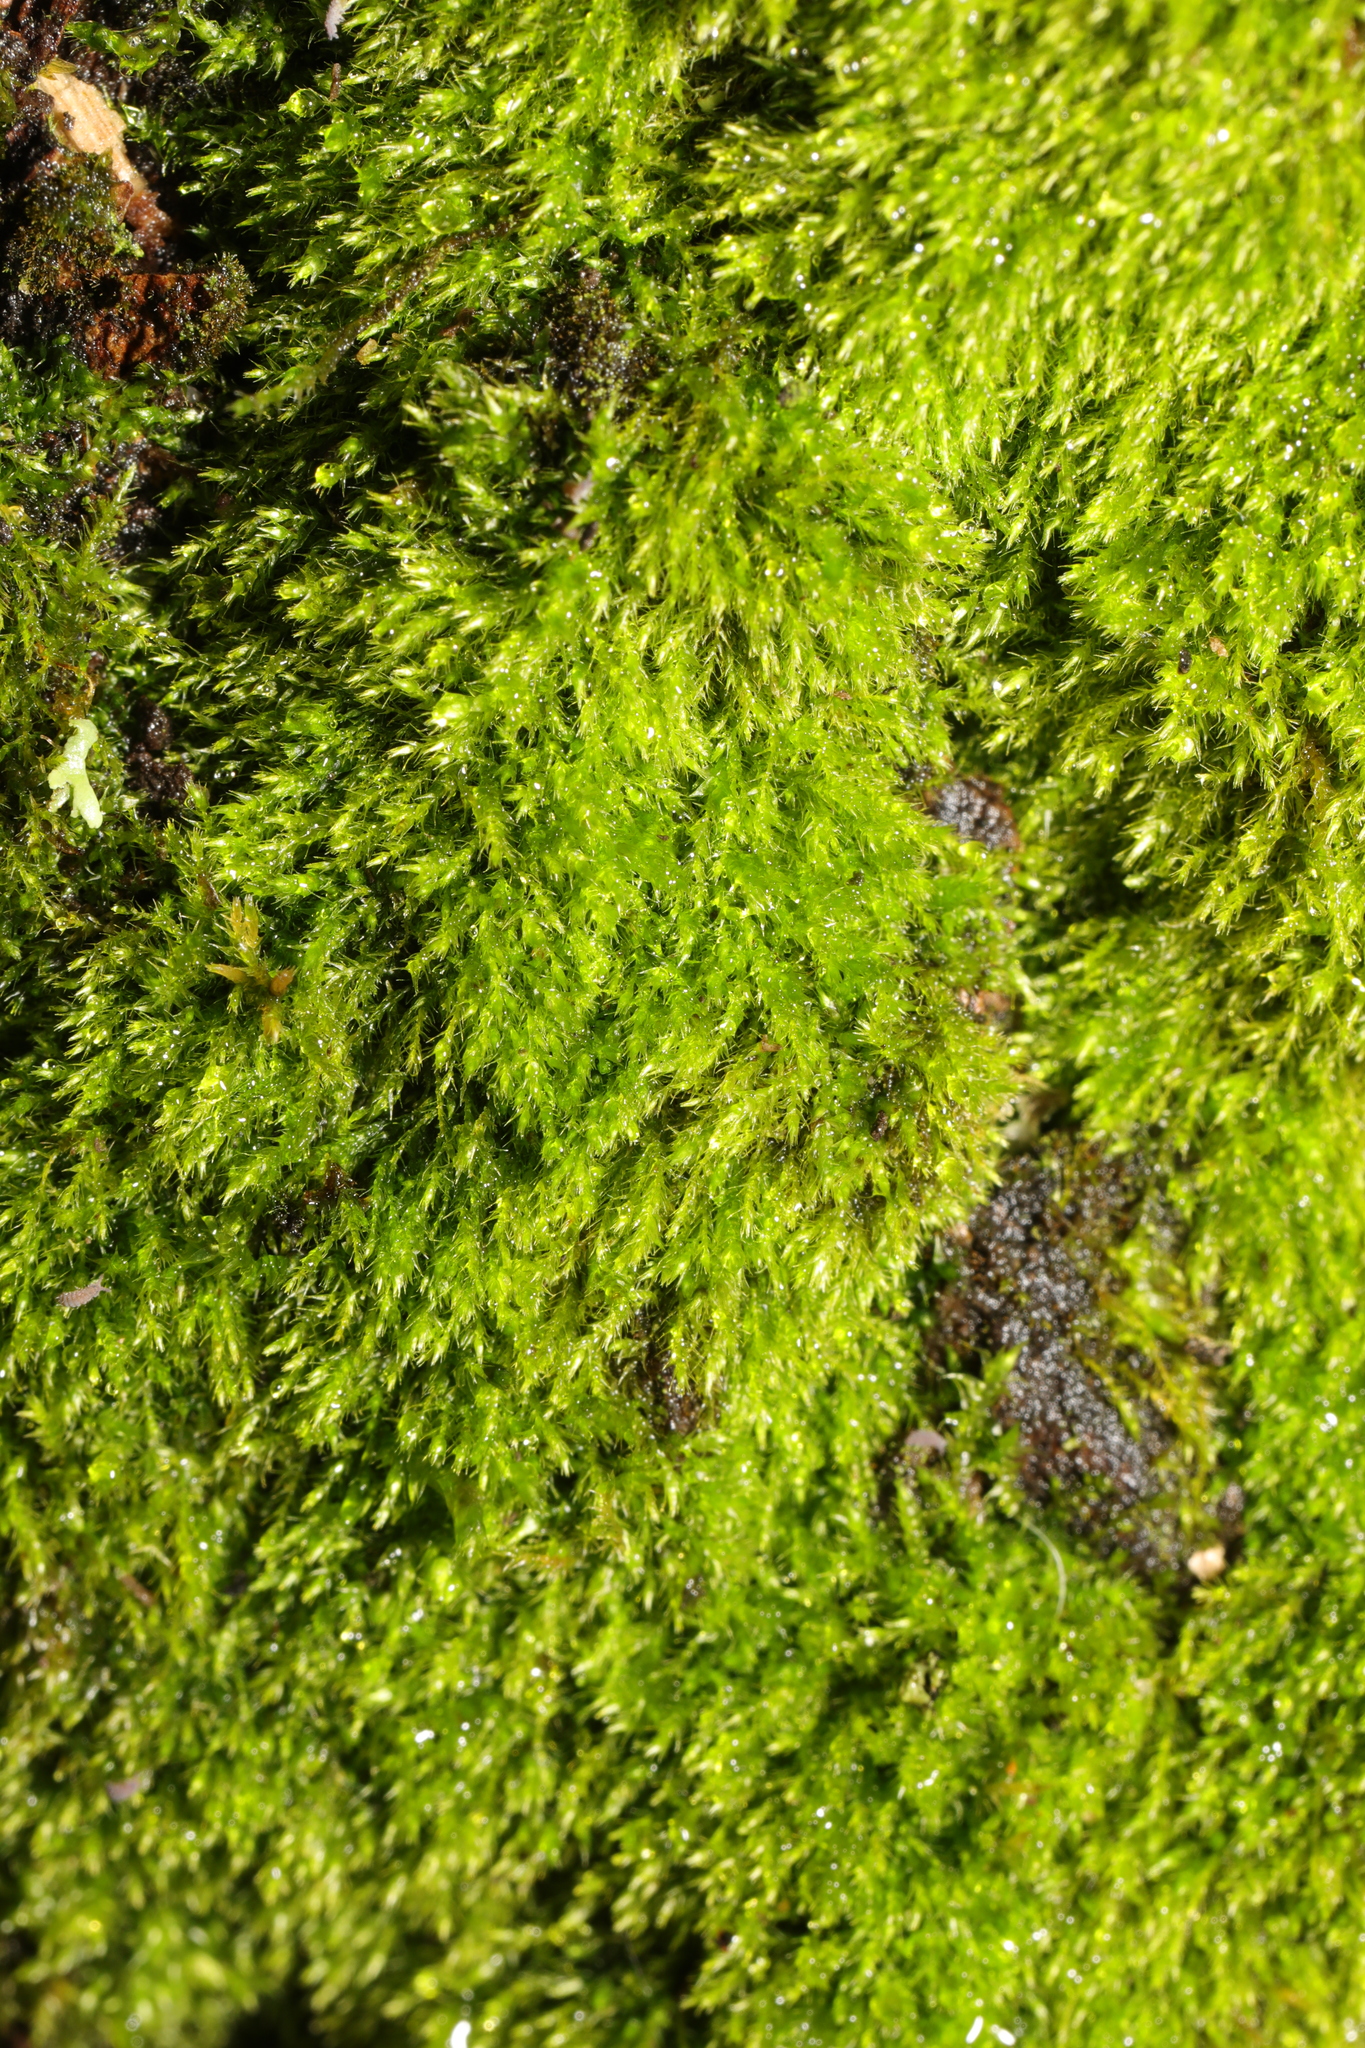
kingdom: Plantae
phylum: Bryophyta
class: Bryopsida
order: Hypnales
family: Amblystegiaceae
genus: Amblystegium
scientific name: Amblystegium serpens
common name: Jurkatzka's feather moss
